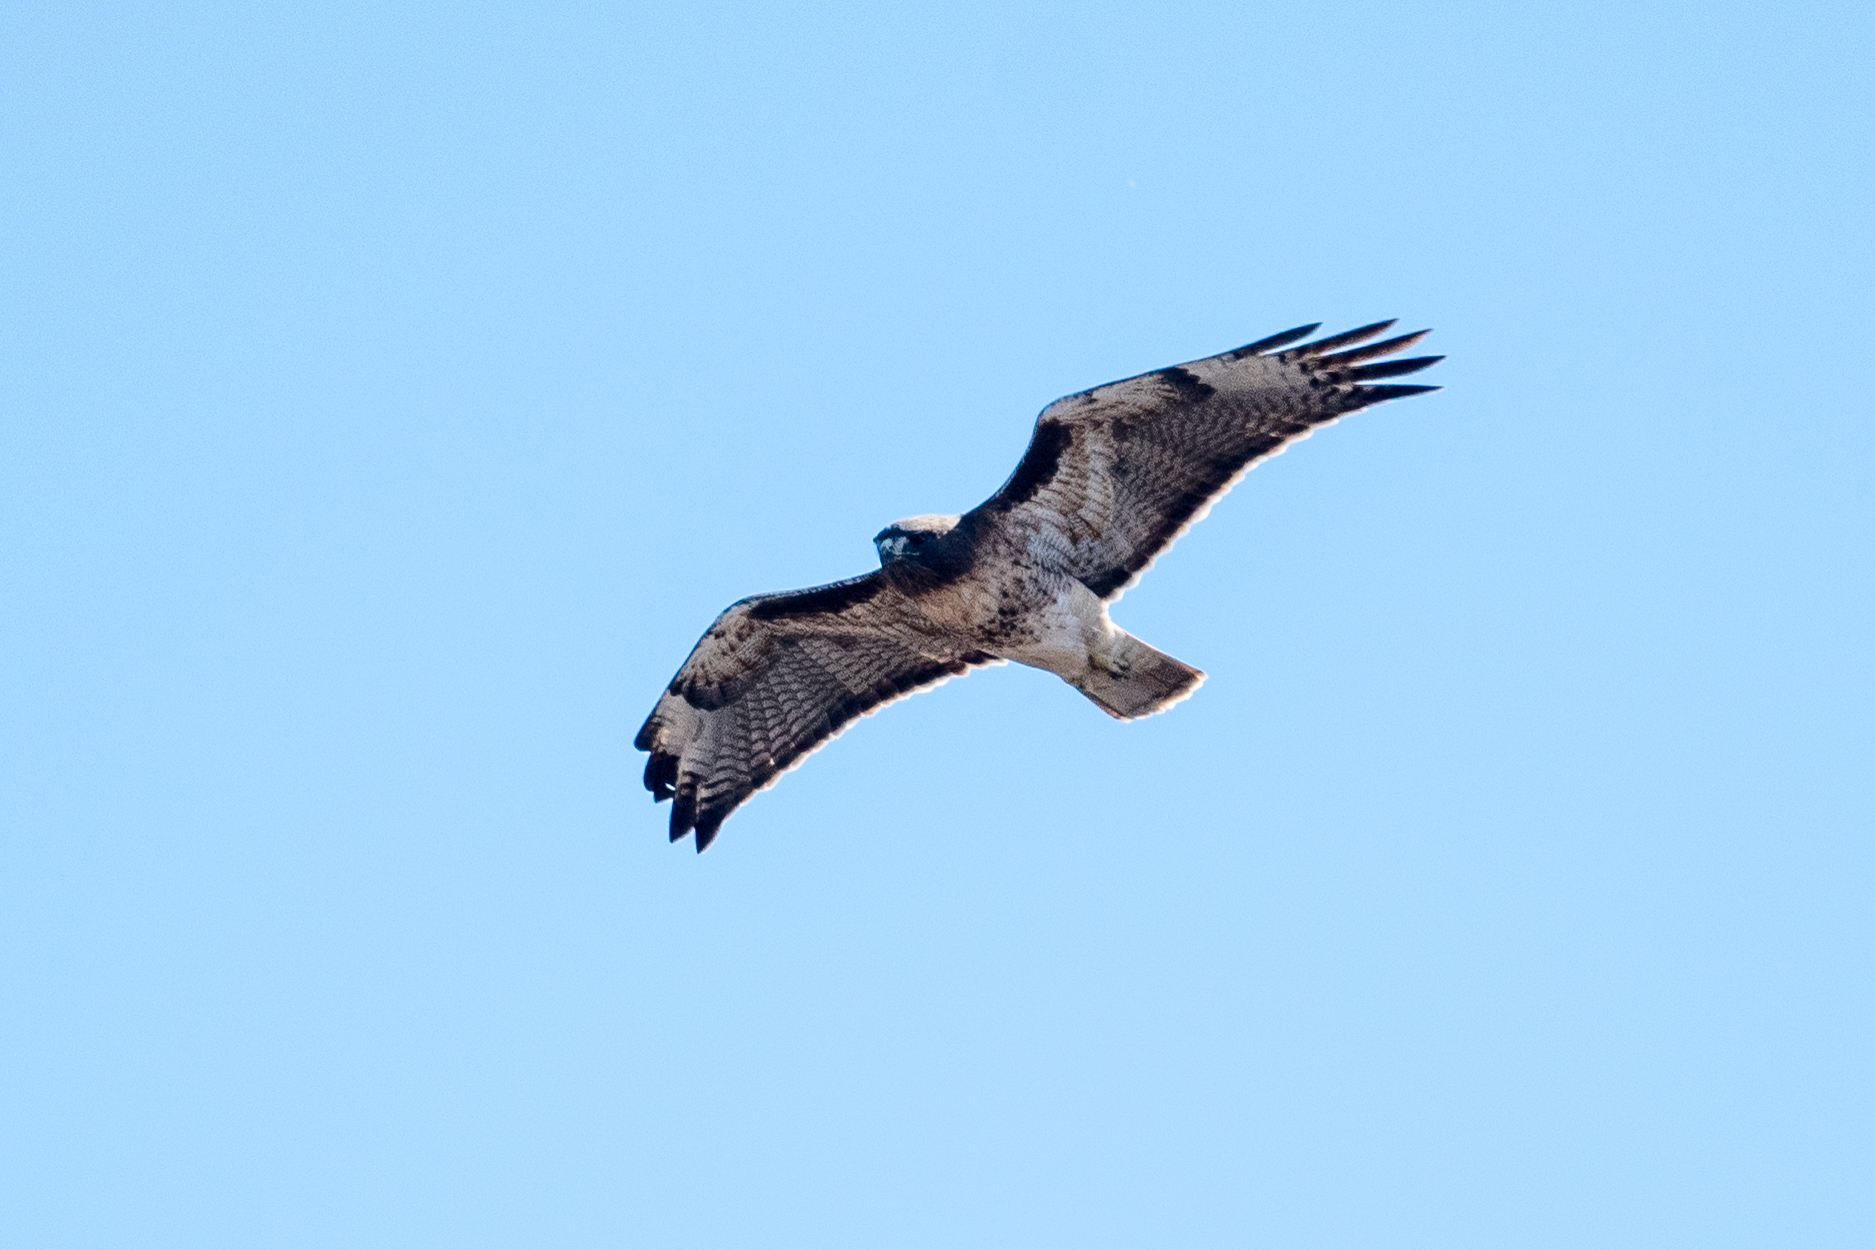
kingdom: Animalia
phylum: Chordata
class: Aves
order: Accipitriformes
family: Accipitridae
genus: Buteo
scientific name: Buteo jamaicensis
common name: Red-tailed hawk
